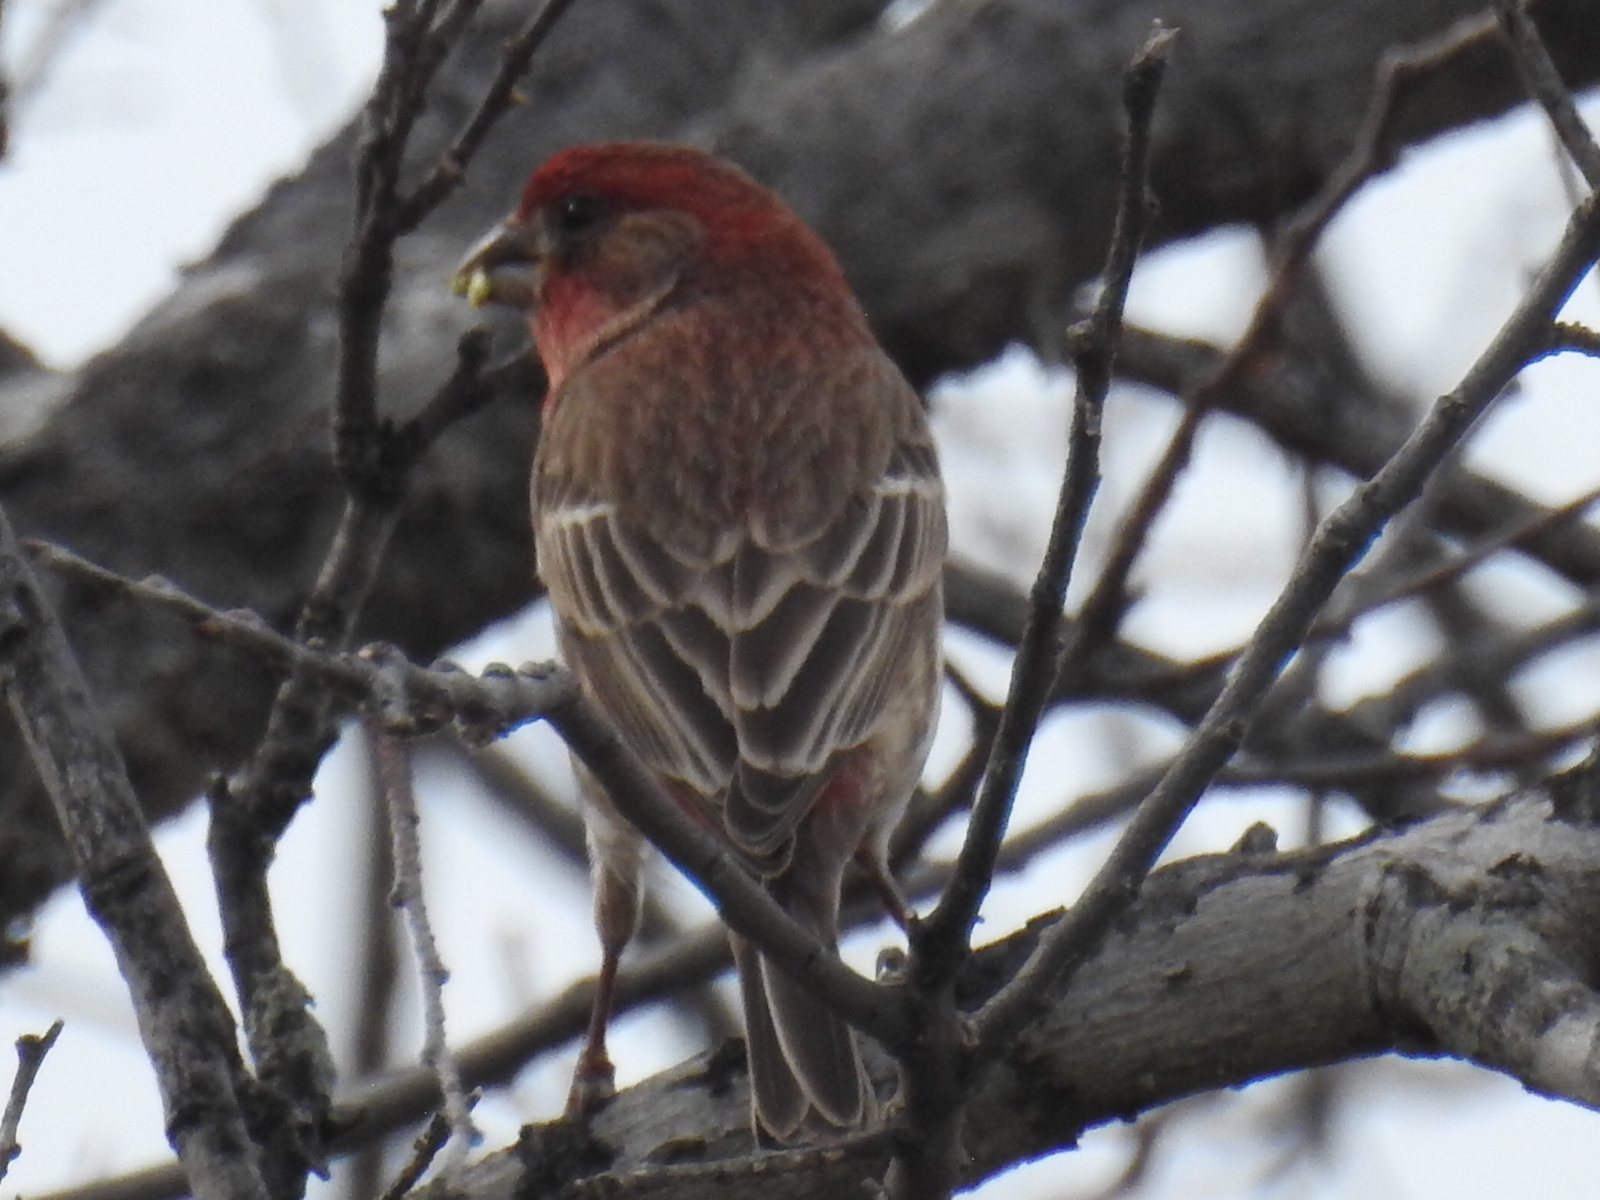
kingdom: Animalia
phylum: Chordata
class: Aves
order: Passeriformes
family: Fringillidae
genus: Haemorhous
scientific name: Haemorhous mexicanus
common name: House finch
